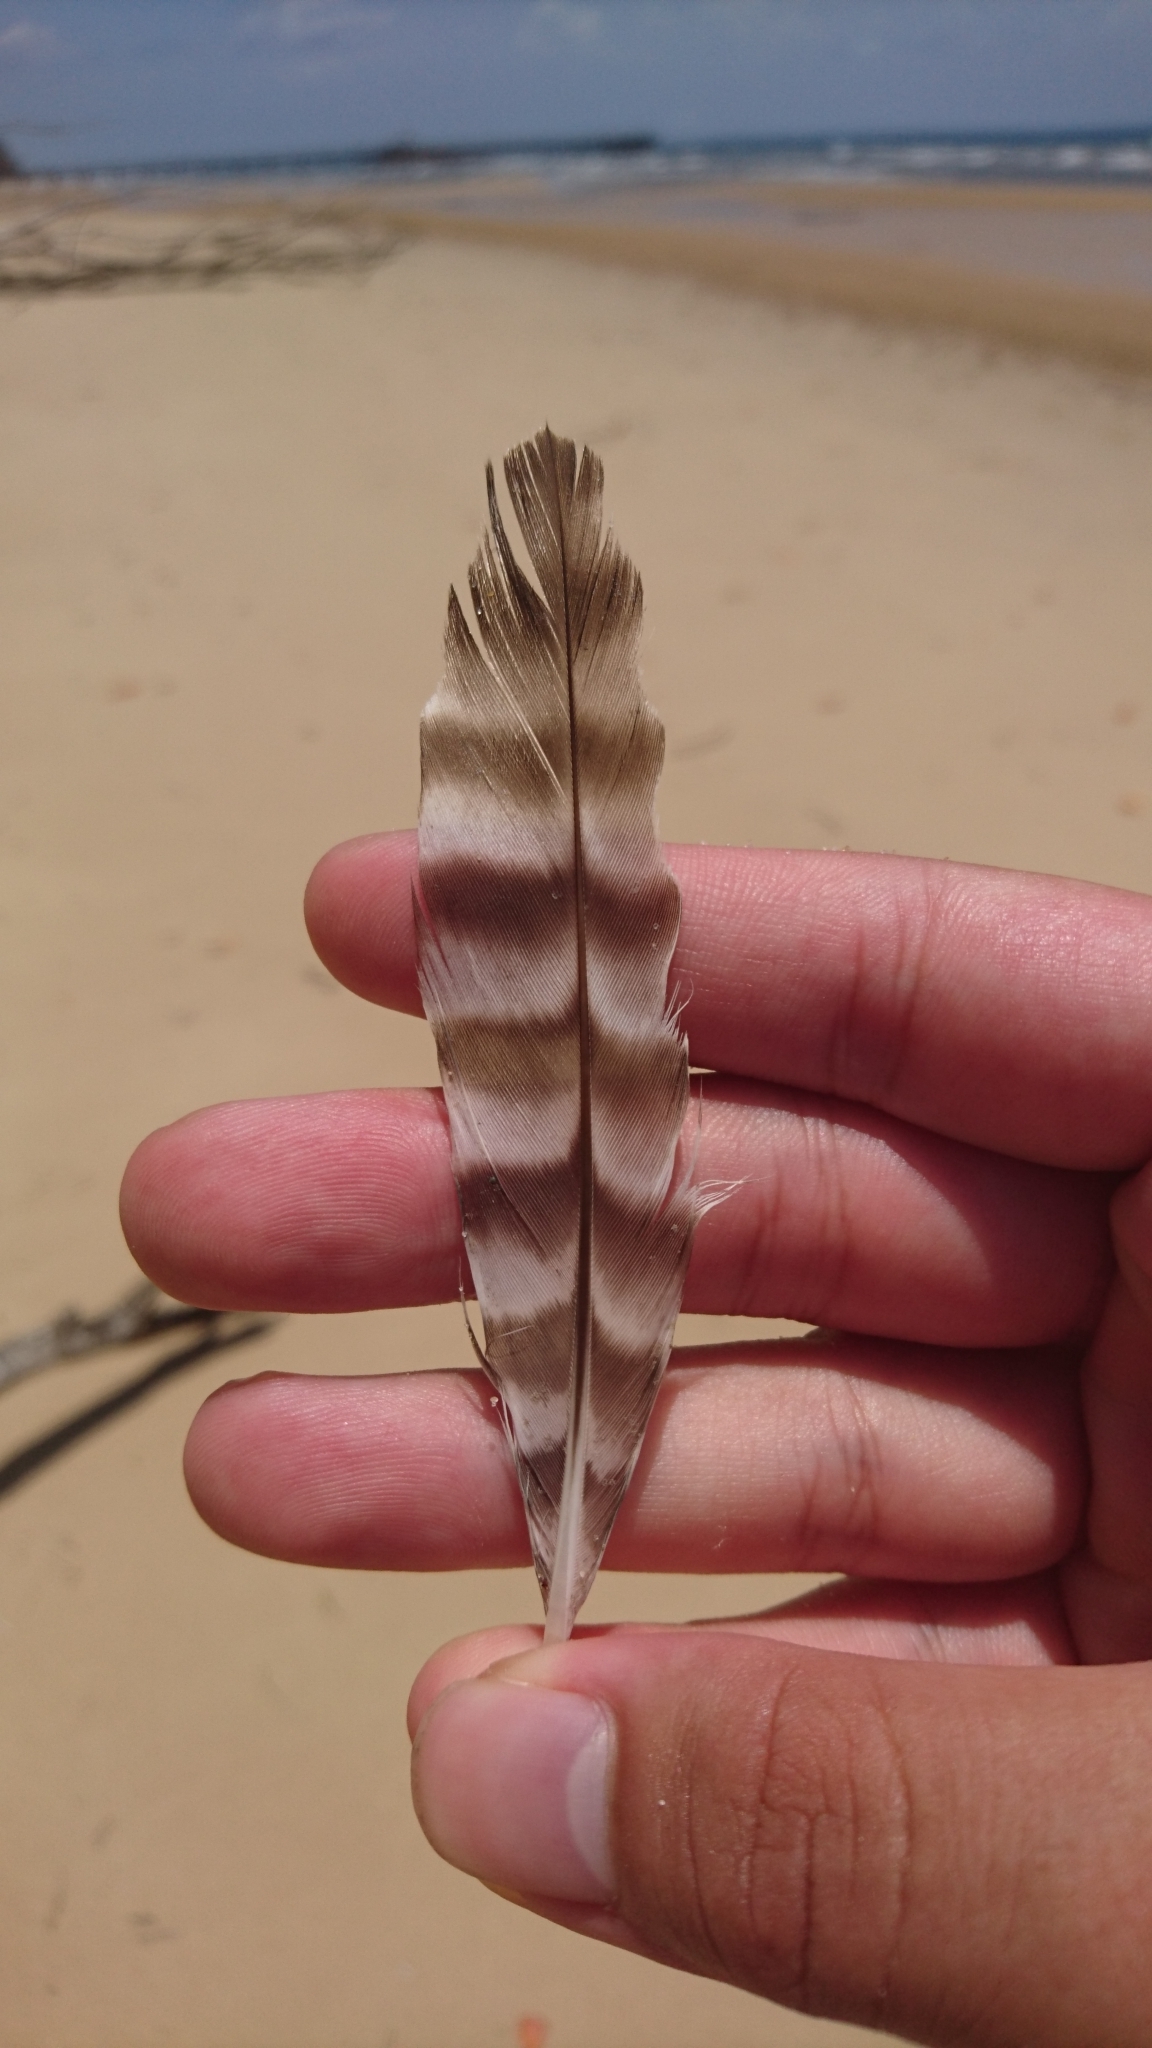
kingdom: Animalia
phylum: Chordata
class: Aves
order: Charadriiformes
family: Scolopacidae
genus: Numenius
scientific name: Numenius phaeopus
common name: Whimbrel
